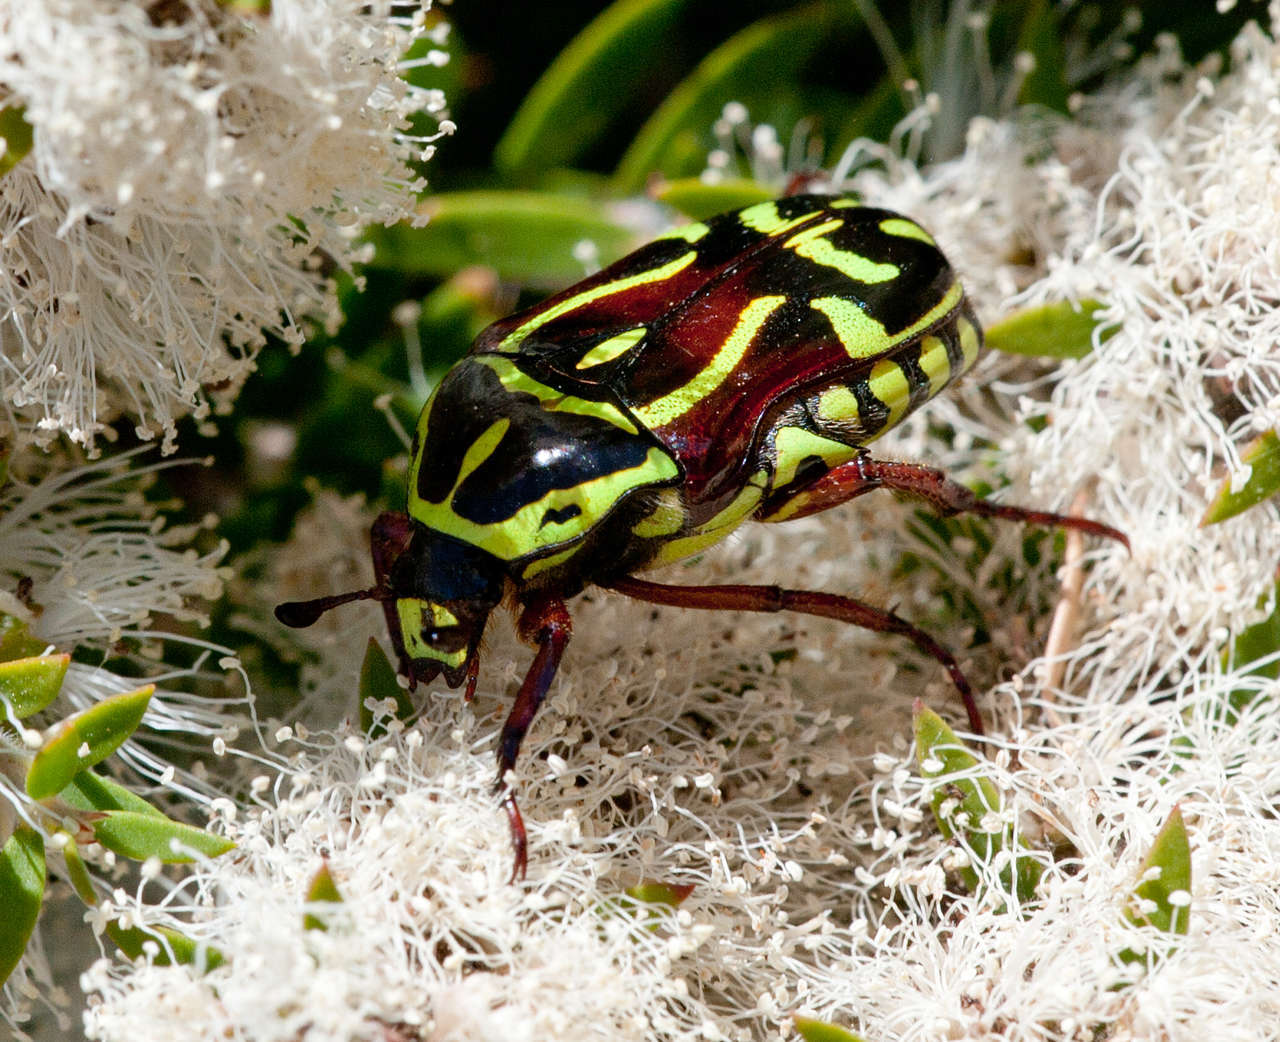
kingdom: Animalia
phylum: Arthropoda
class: Insecta
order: Coleoptera
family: Scarabaeidae
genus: Eupoecila
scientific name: Eupoecila australasiae
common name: Fiddler beetle
